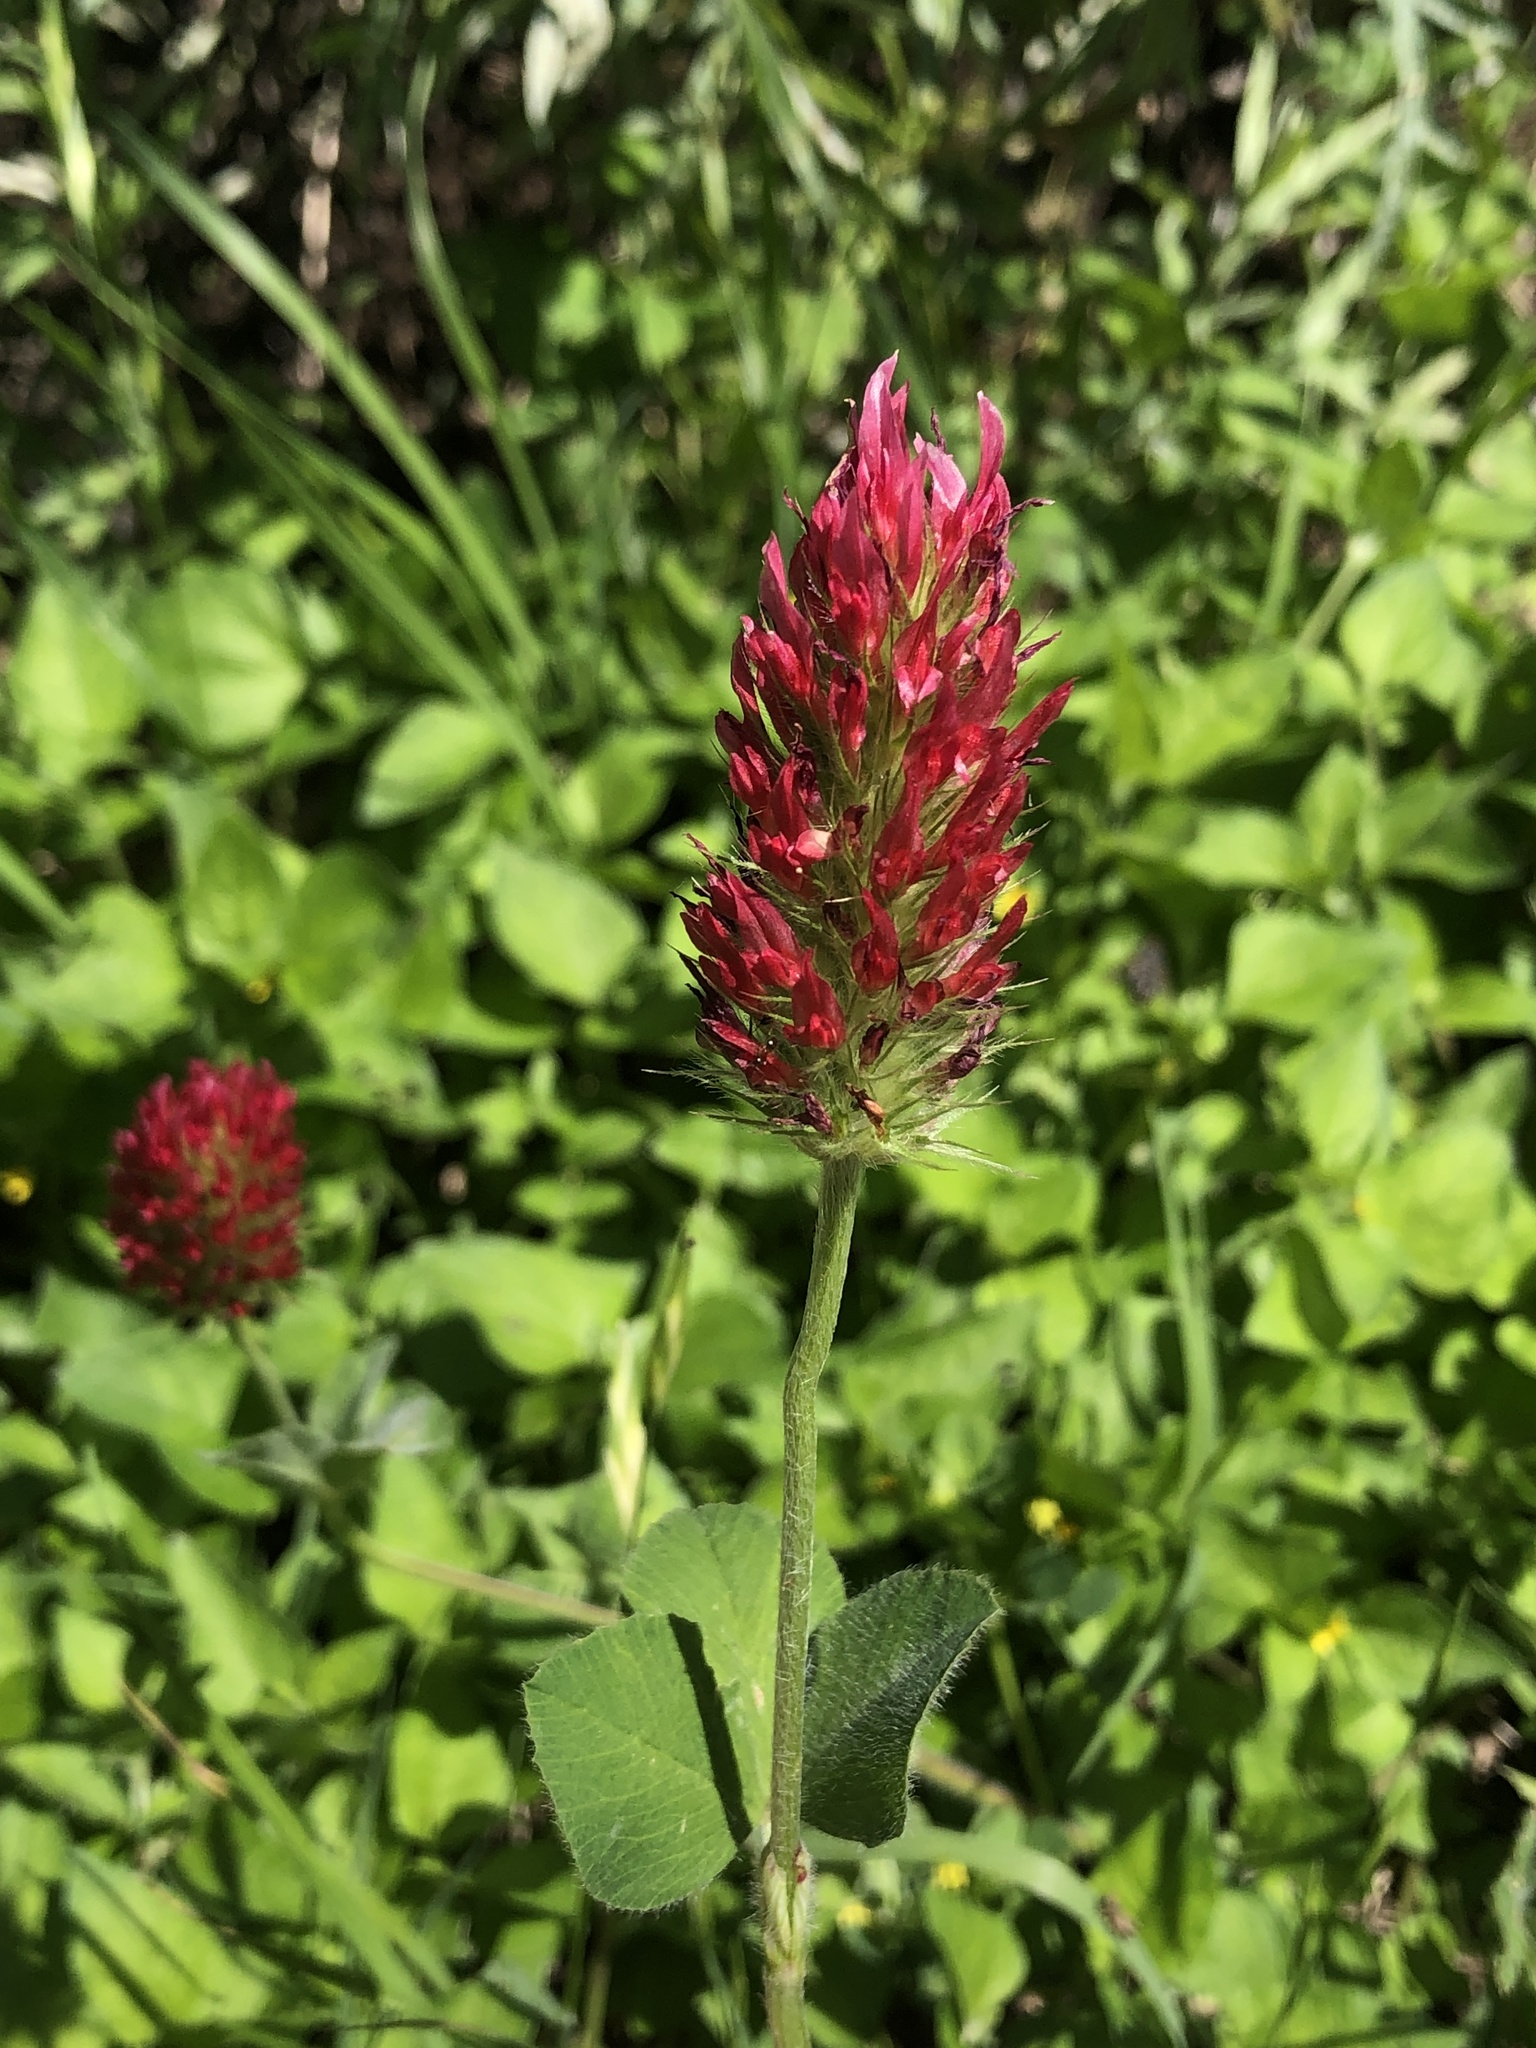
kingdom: Plantae
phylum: Tracheophyta
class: Magnoliopsida
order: Fabales
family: Fabaceae
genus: Trifolium
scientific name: Trifolium incarnatum
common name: Crimson clover
